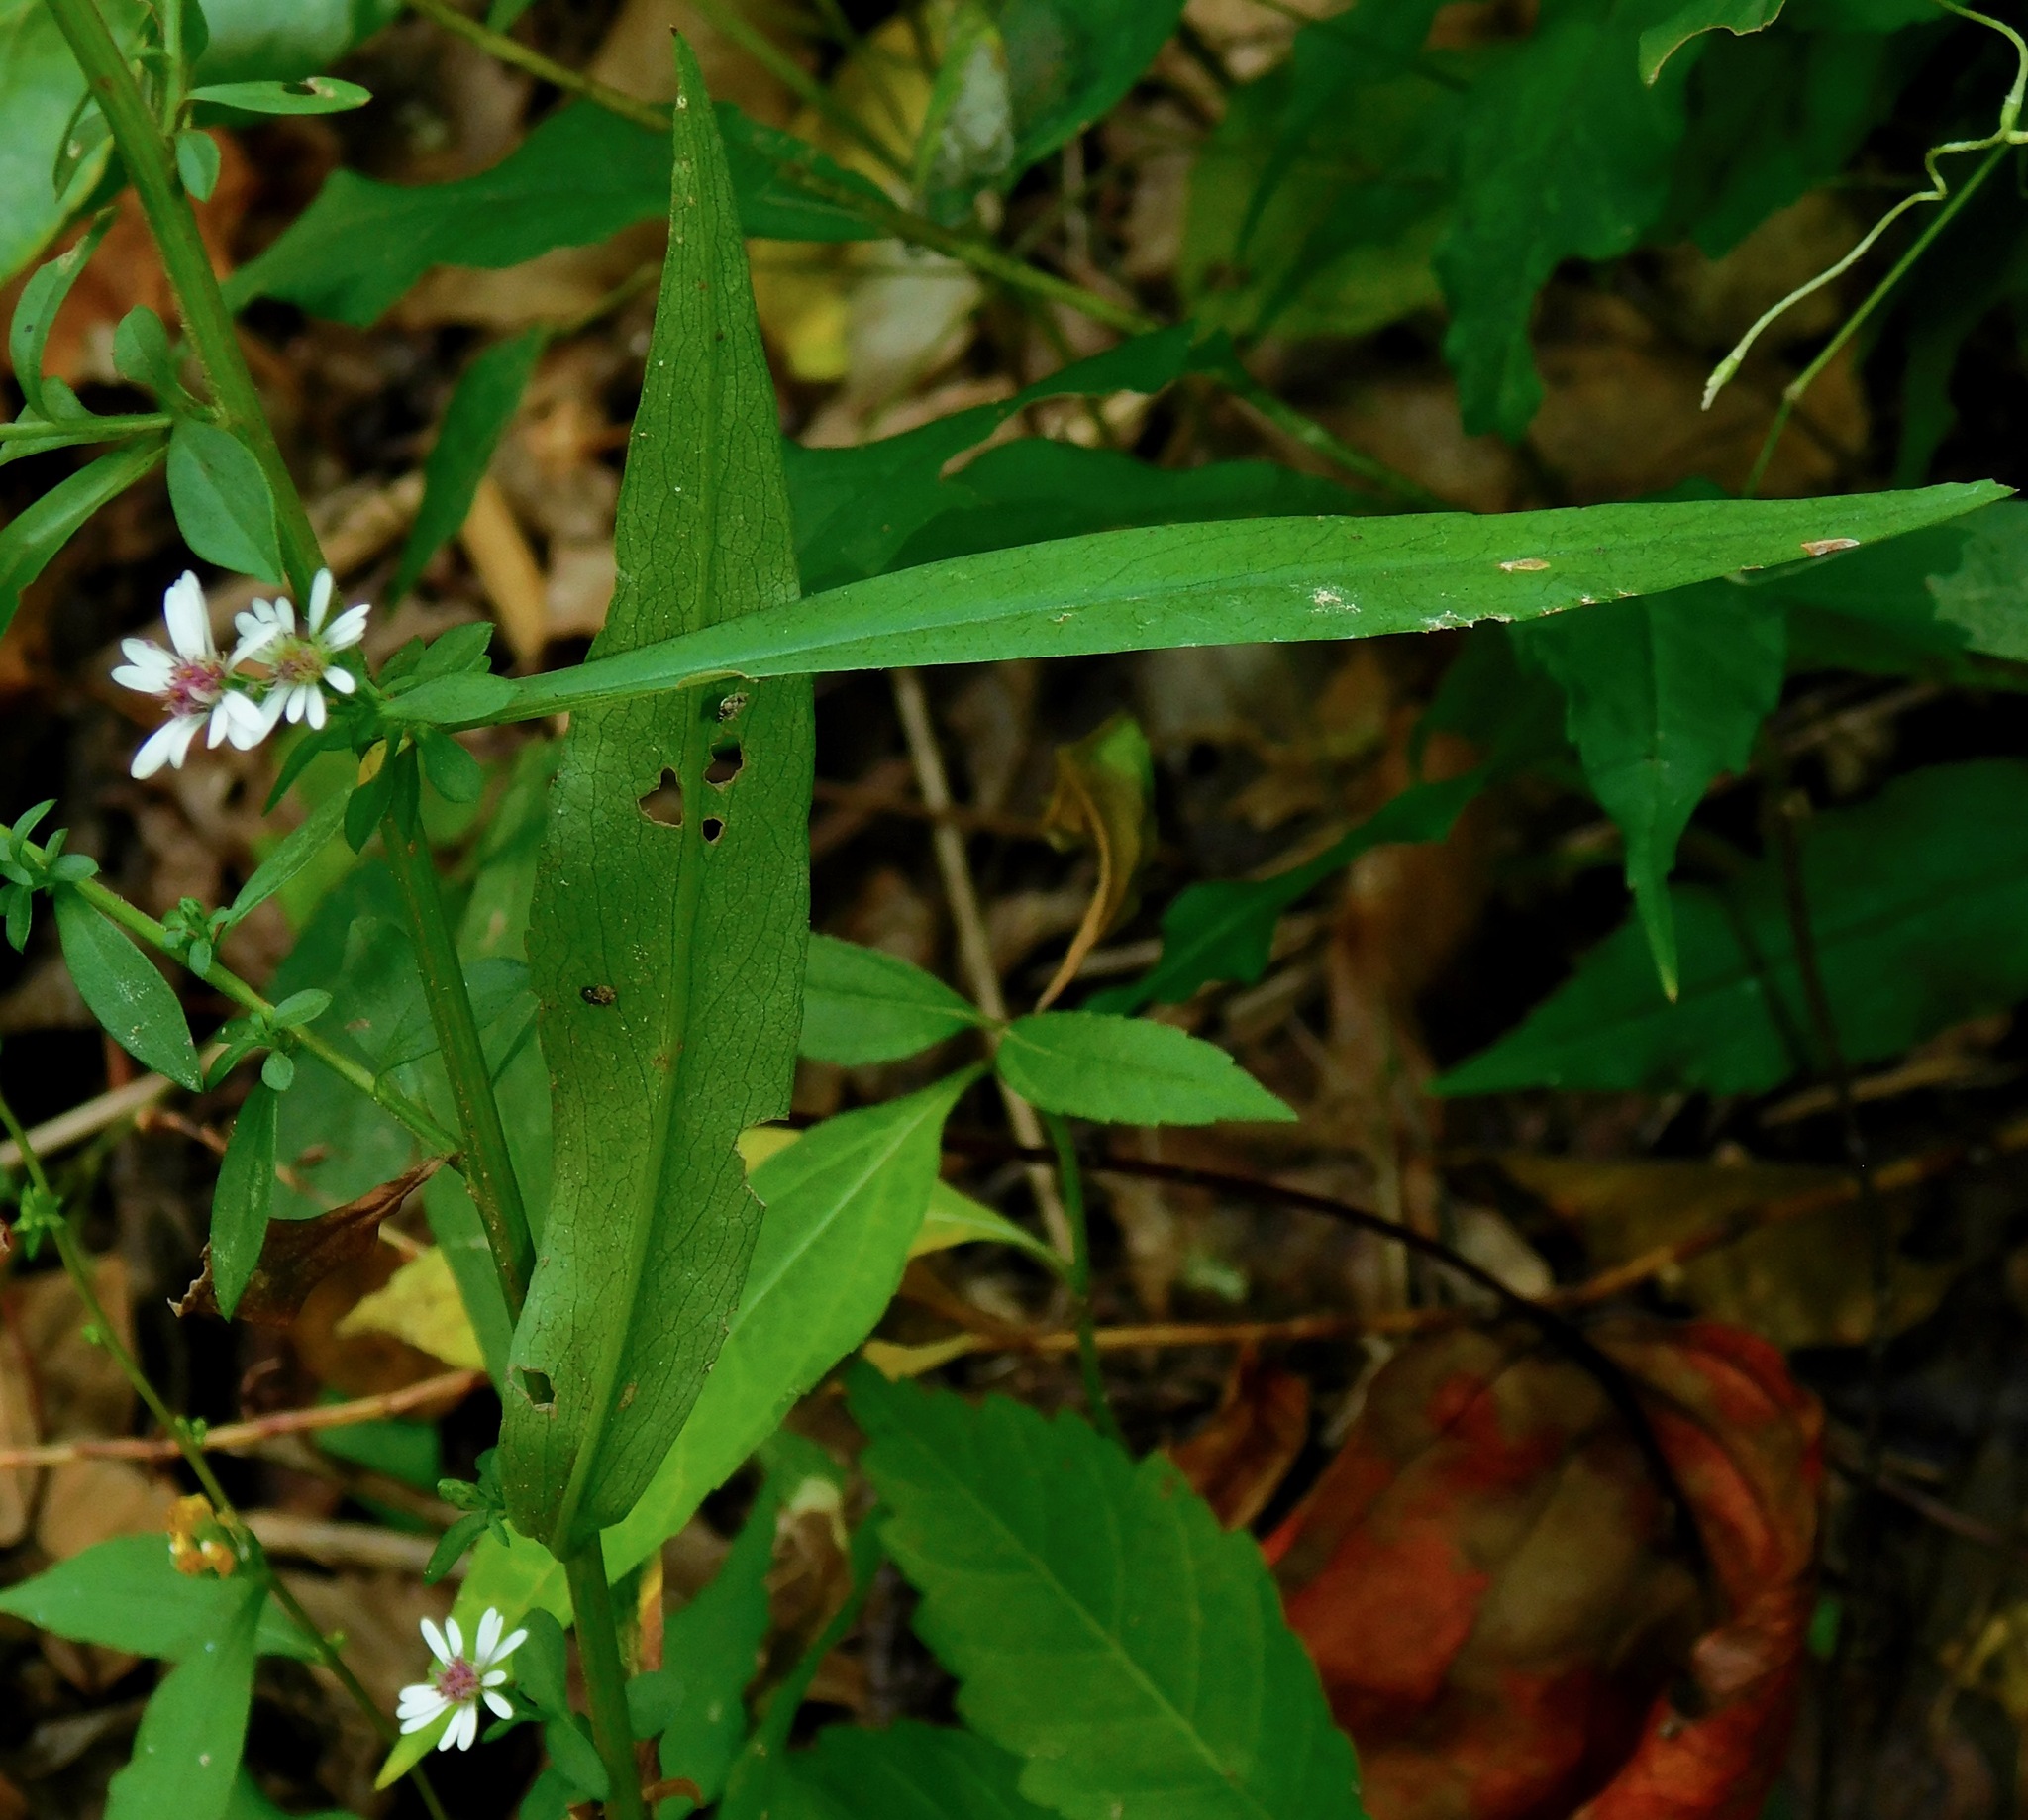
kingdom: Plantae
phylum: Tracheophyta
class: Magnoliopsida
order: Asterales
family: Asteraceae
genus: Symphyotrichum
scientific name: Symphyotrichum lateriflorum
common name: Calico aster
